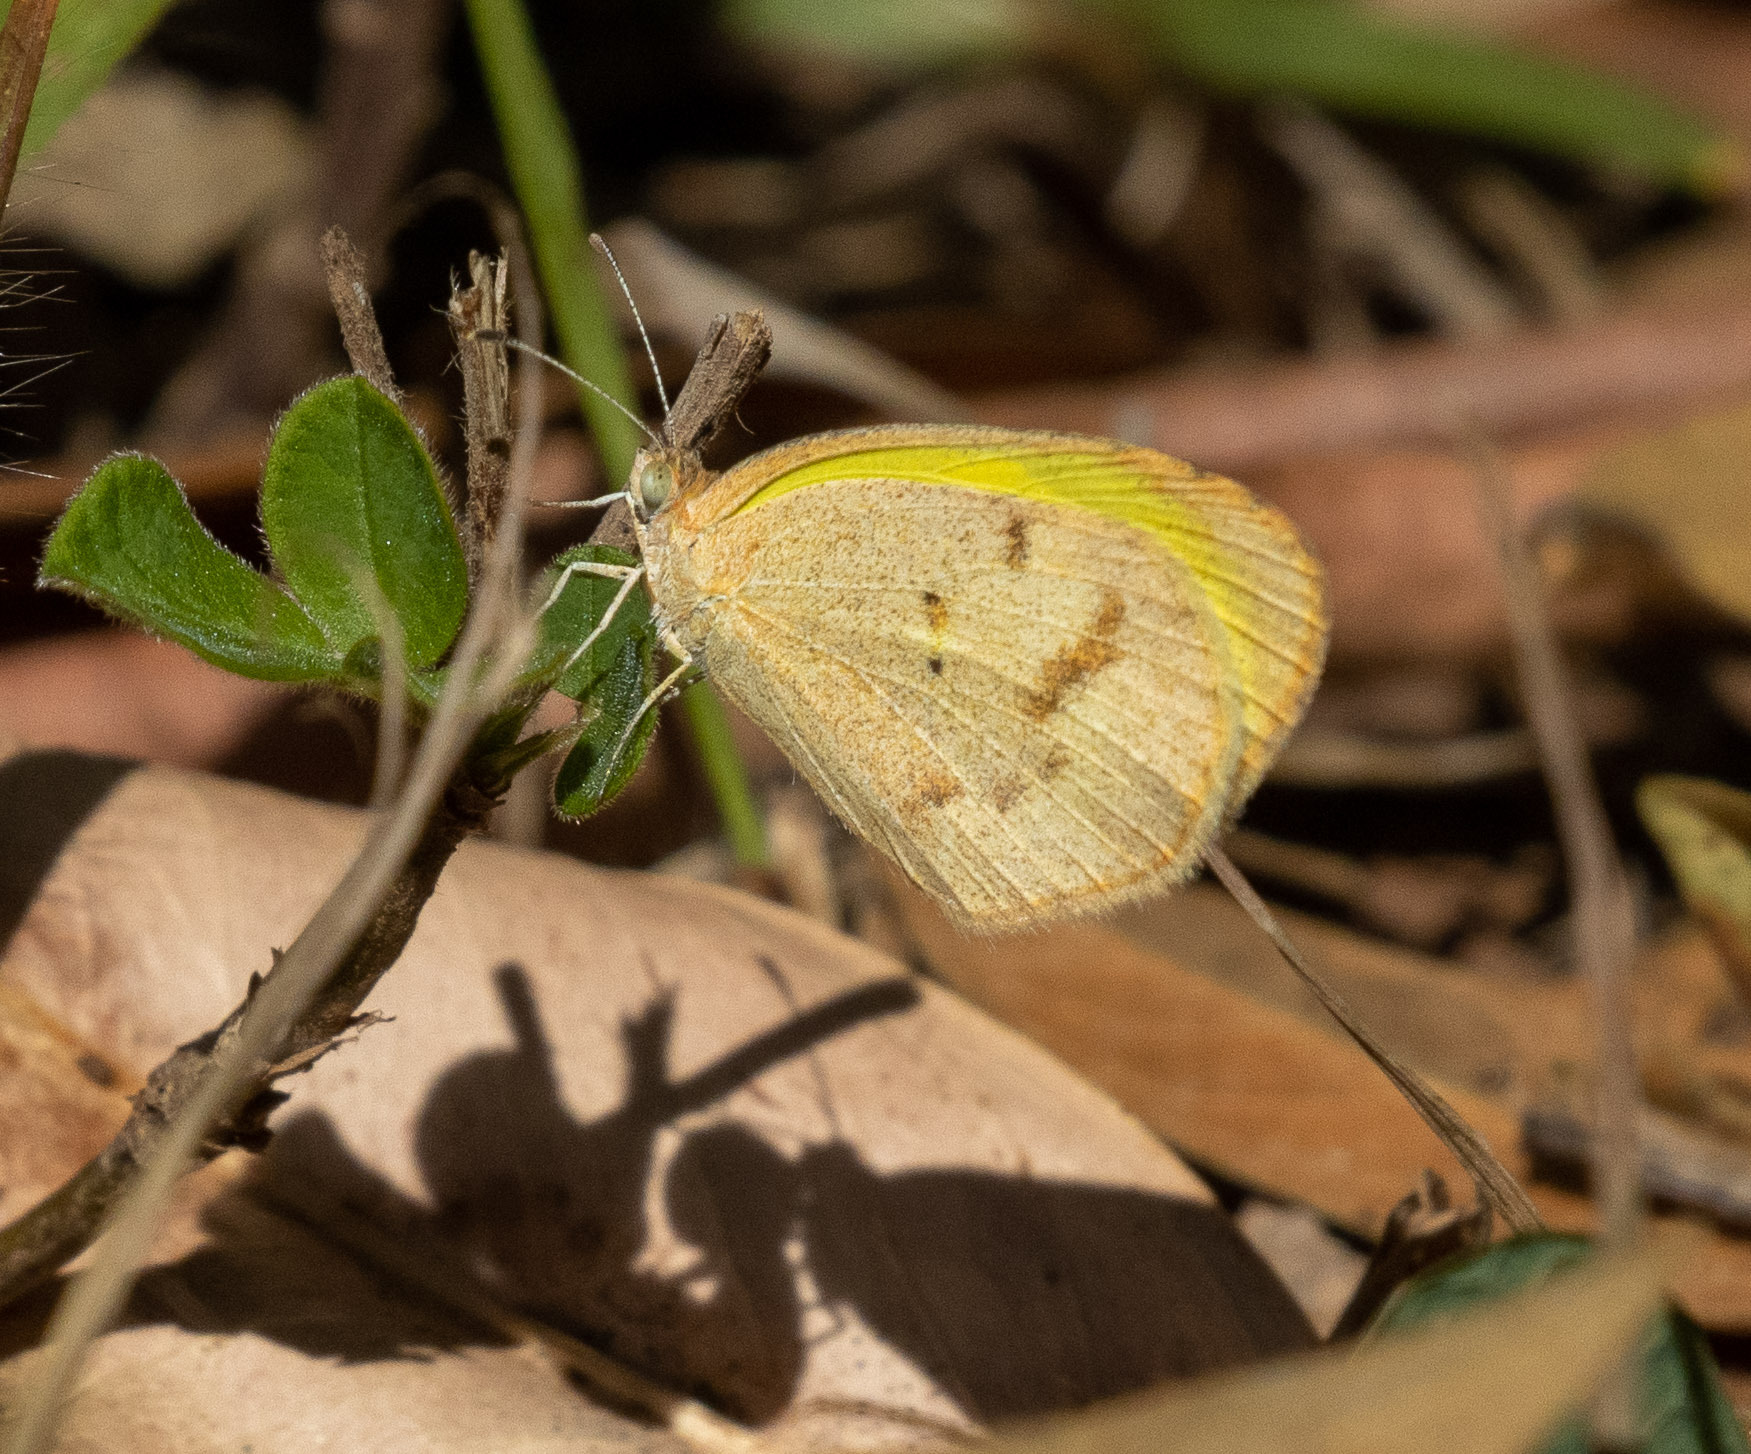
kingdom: Animalia
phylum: Arthropoda
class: Insecta
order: Lepidoptera
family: Pieridae
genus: Eurema
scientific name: Eurema elathea
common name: Banded yellow
